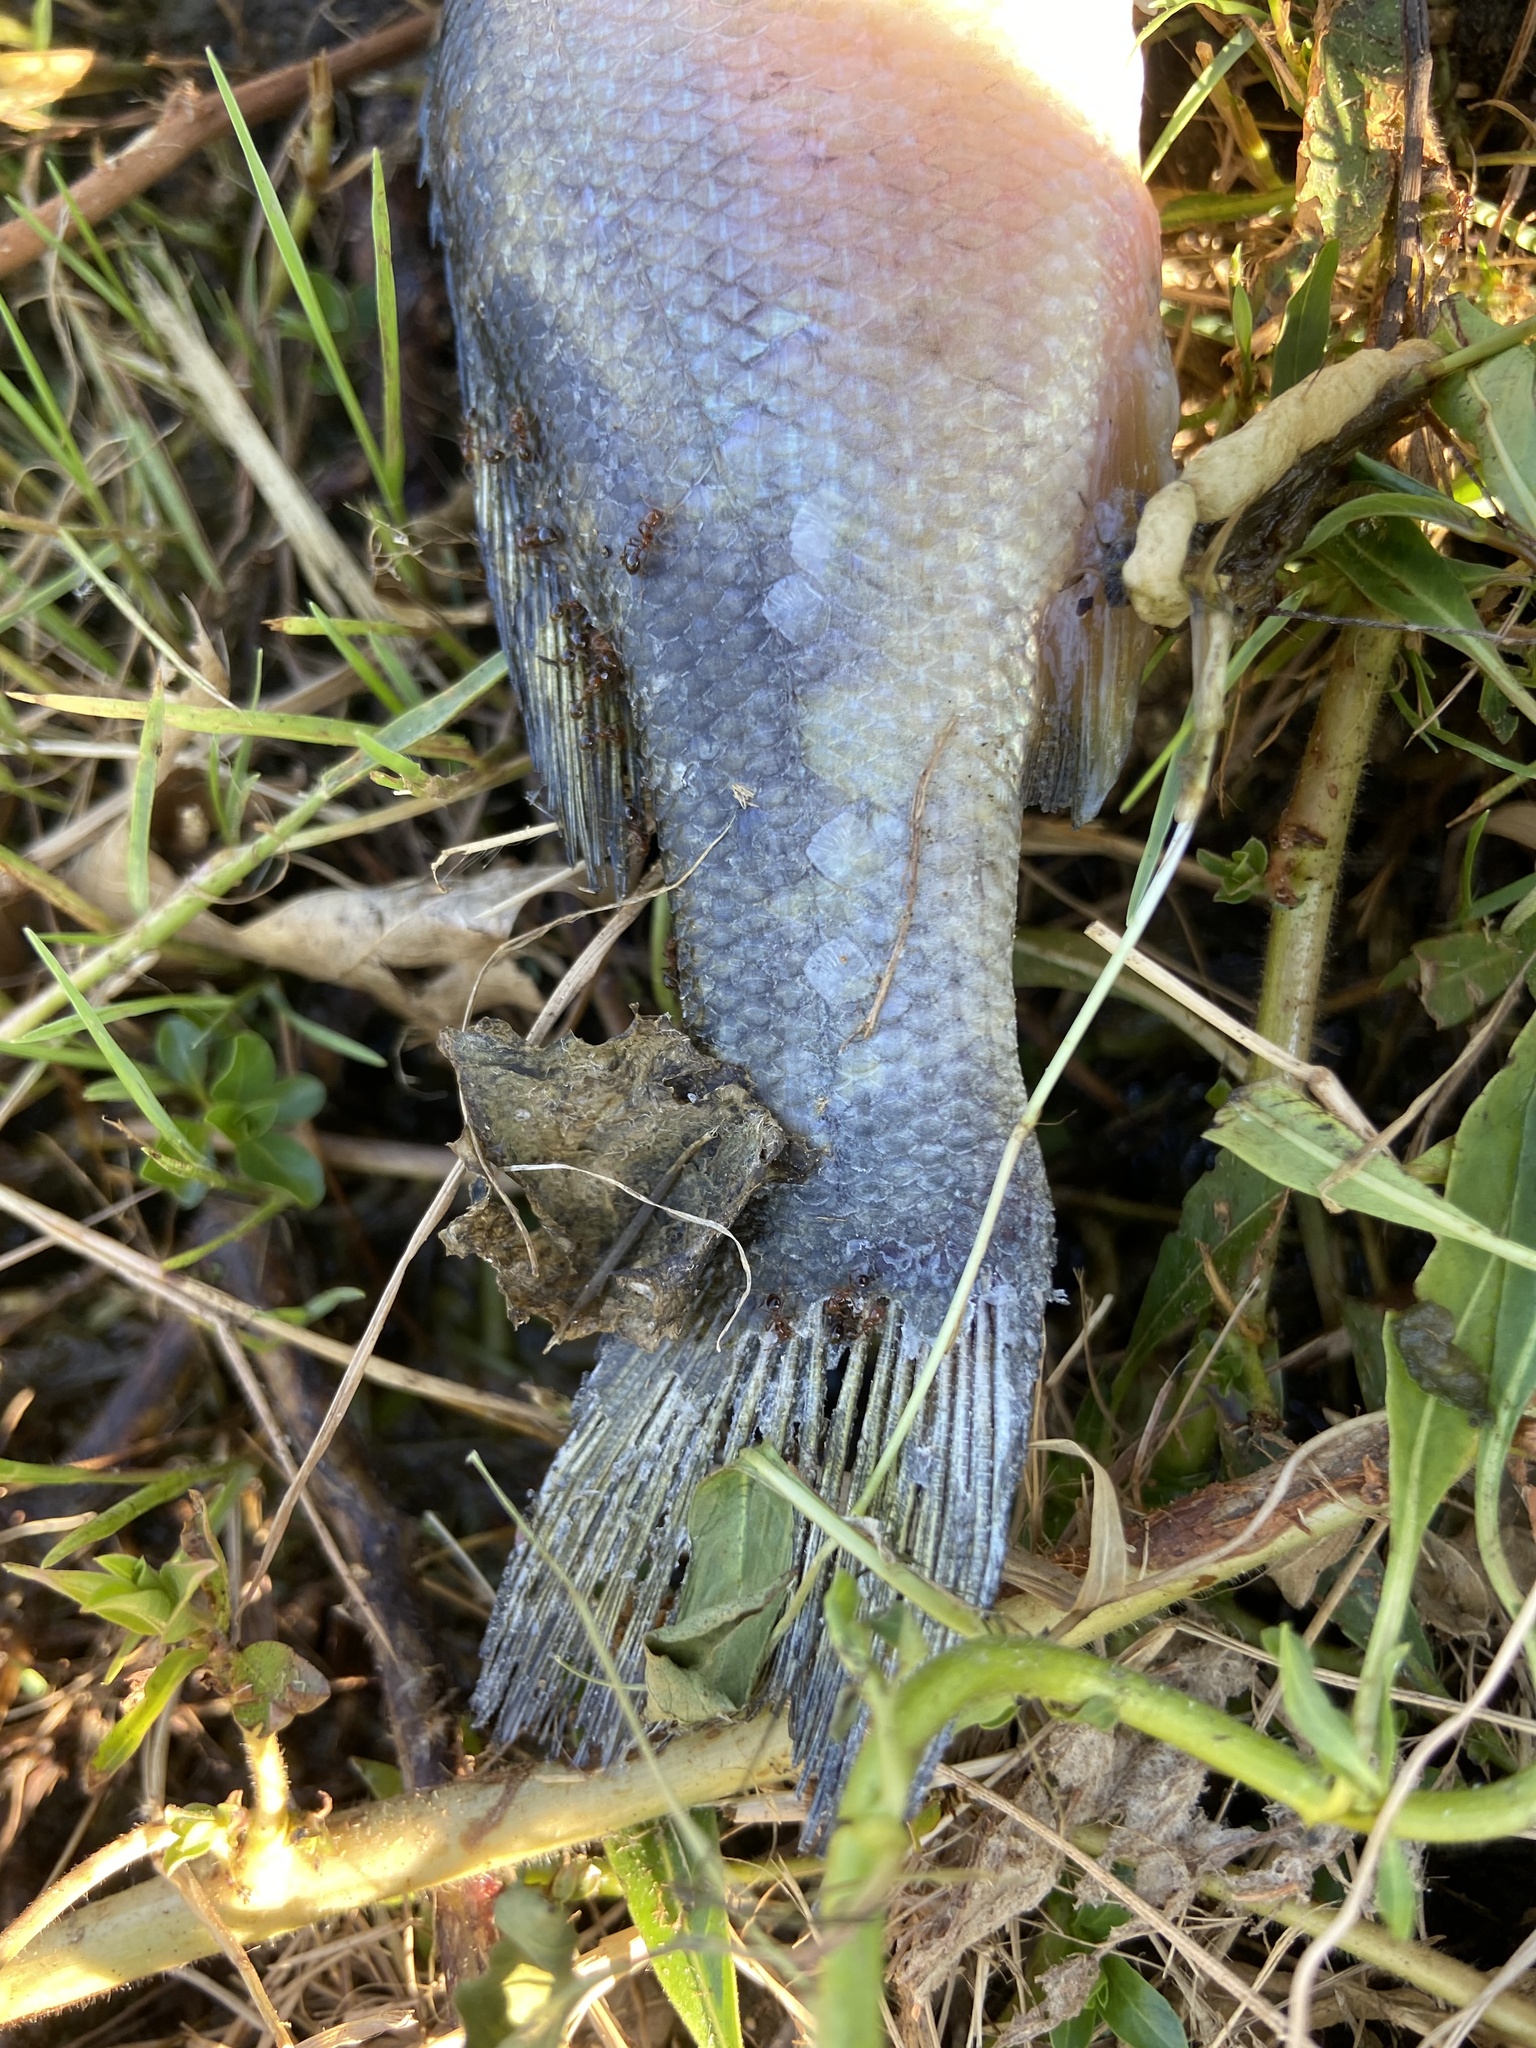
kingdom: Animalia
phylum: Chordata
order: Perciformes
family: Centrarchidae
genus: Micropterus
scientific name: Micropterus
